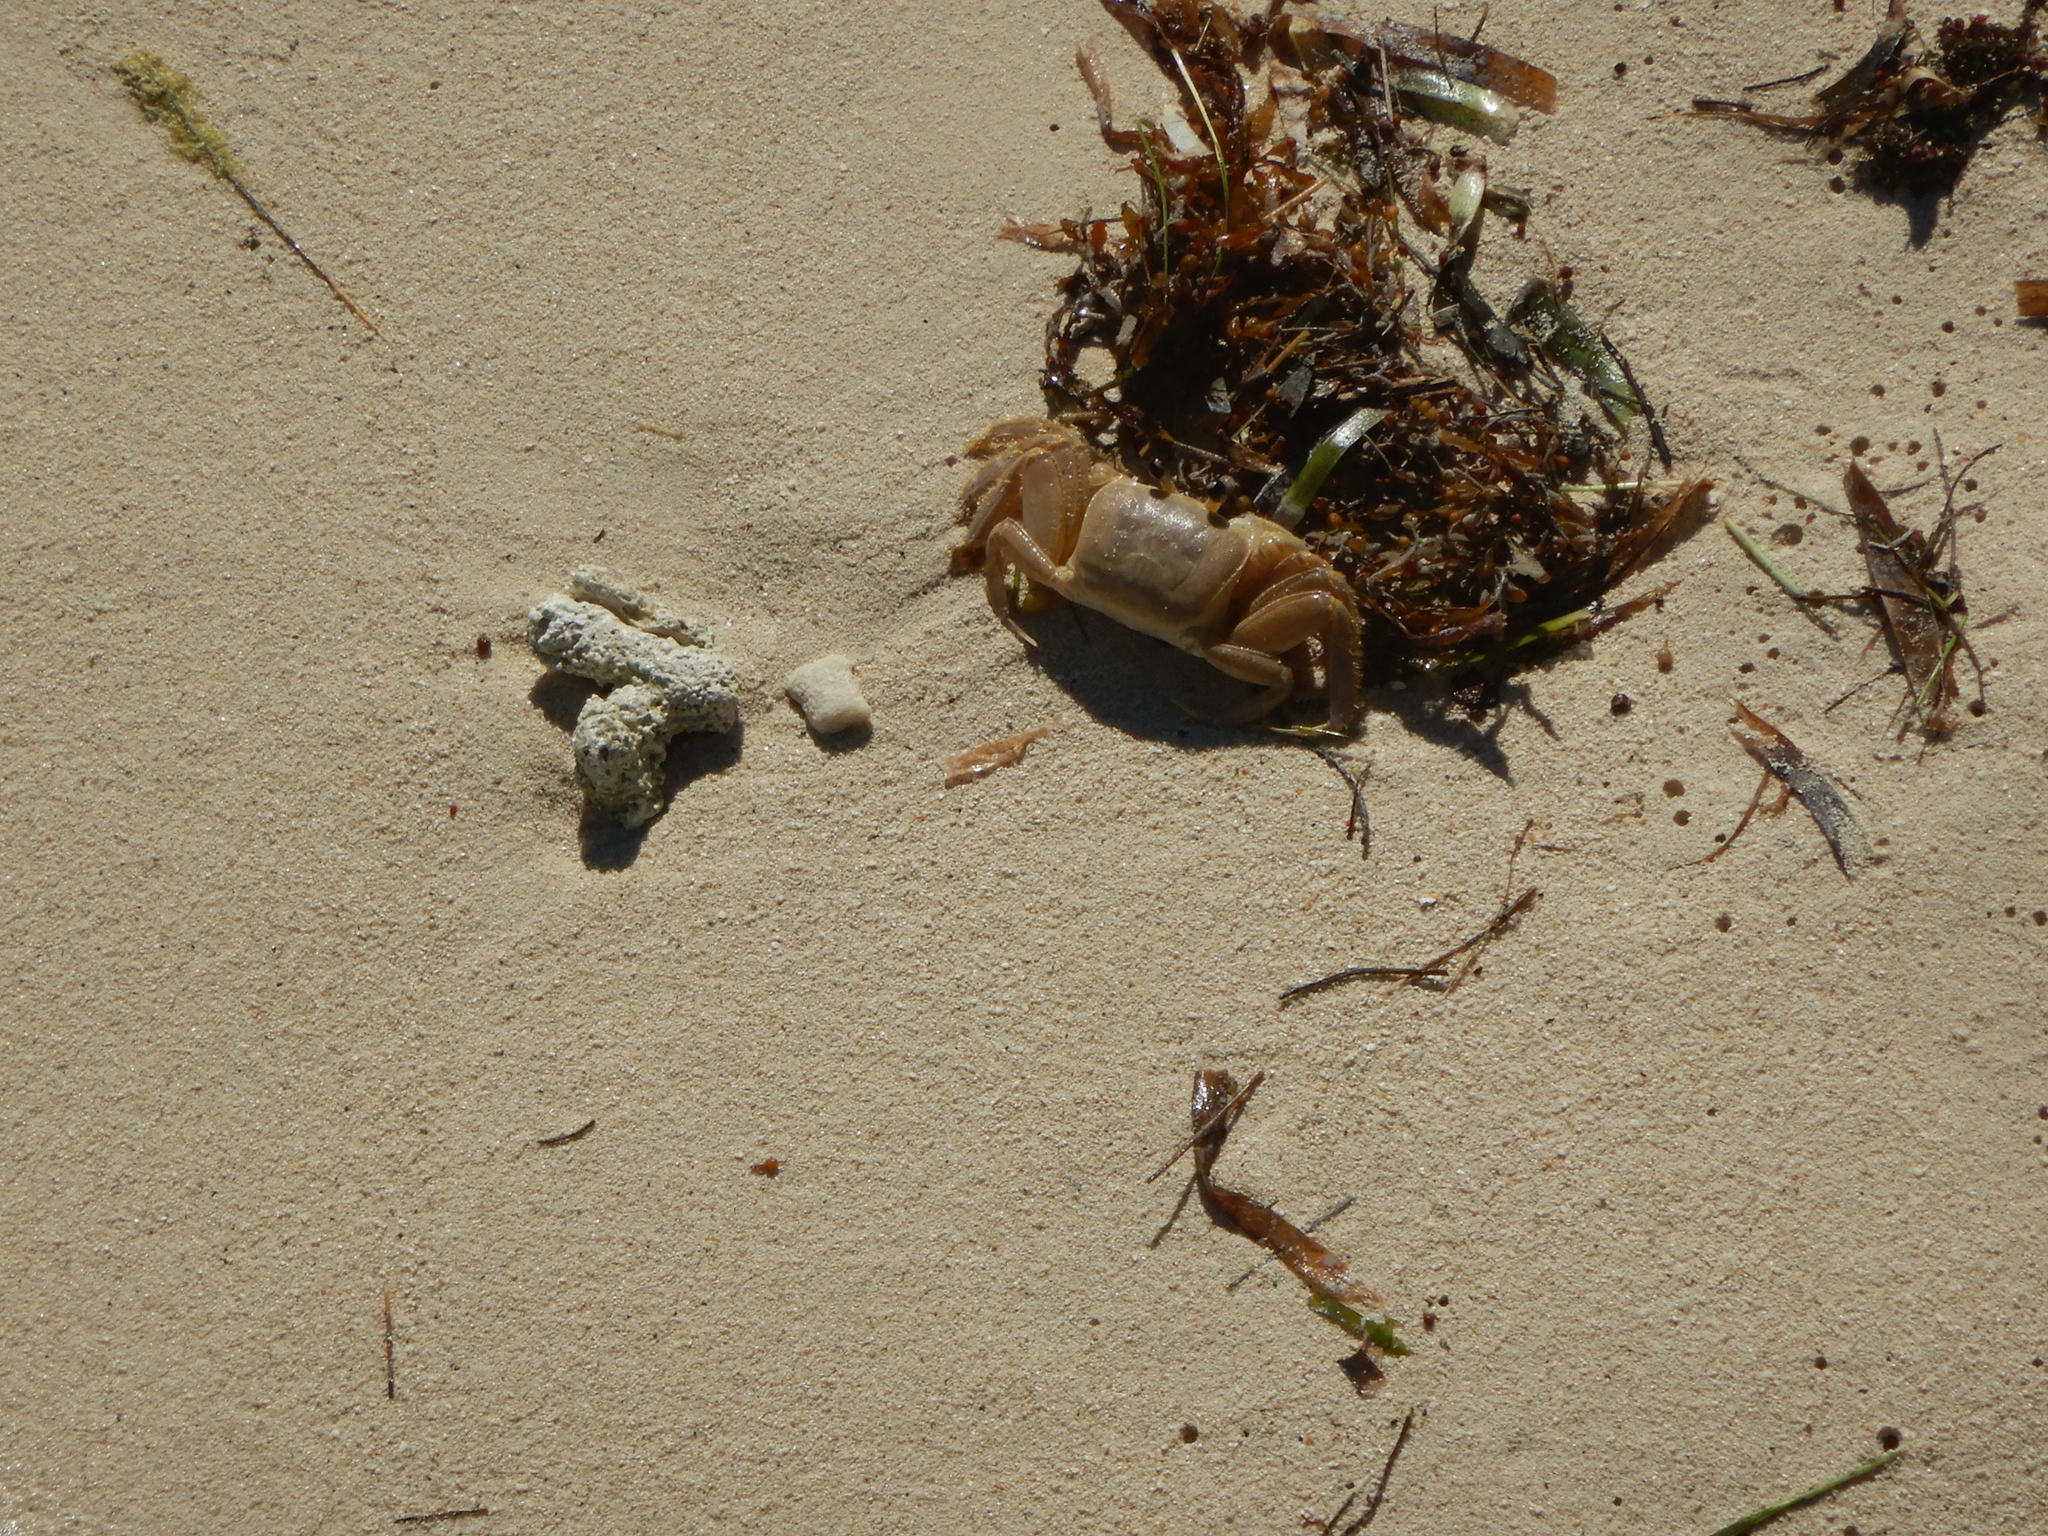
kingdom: Animalia
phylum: Arthropoda
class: Malacostraca
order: Decapoda
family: Ocypodidae
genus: Ocypode
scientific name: Ocypode quadrata
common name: Ghost crab
